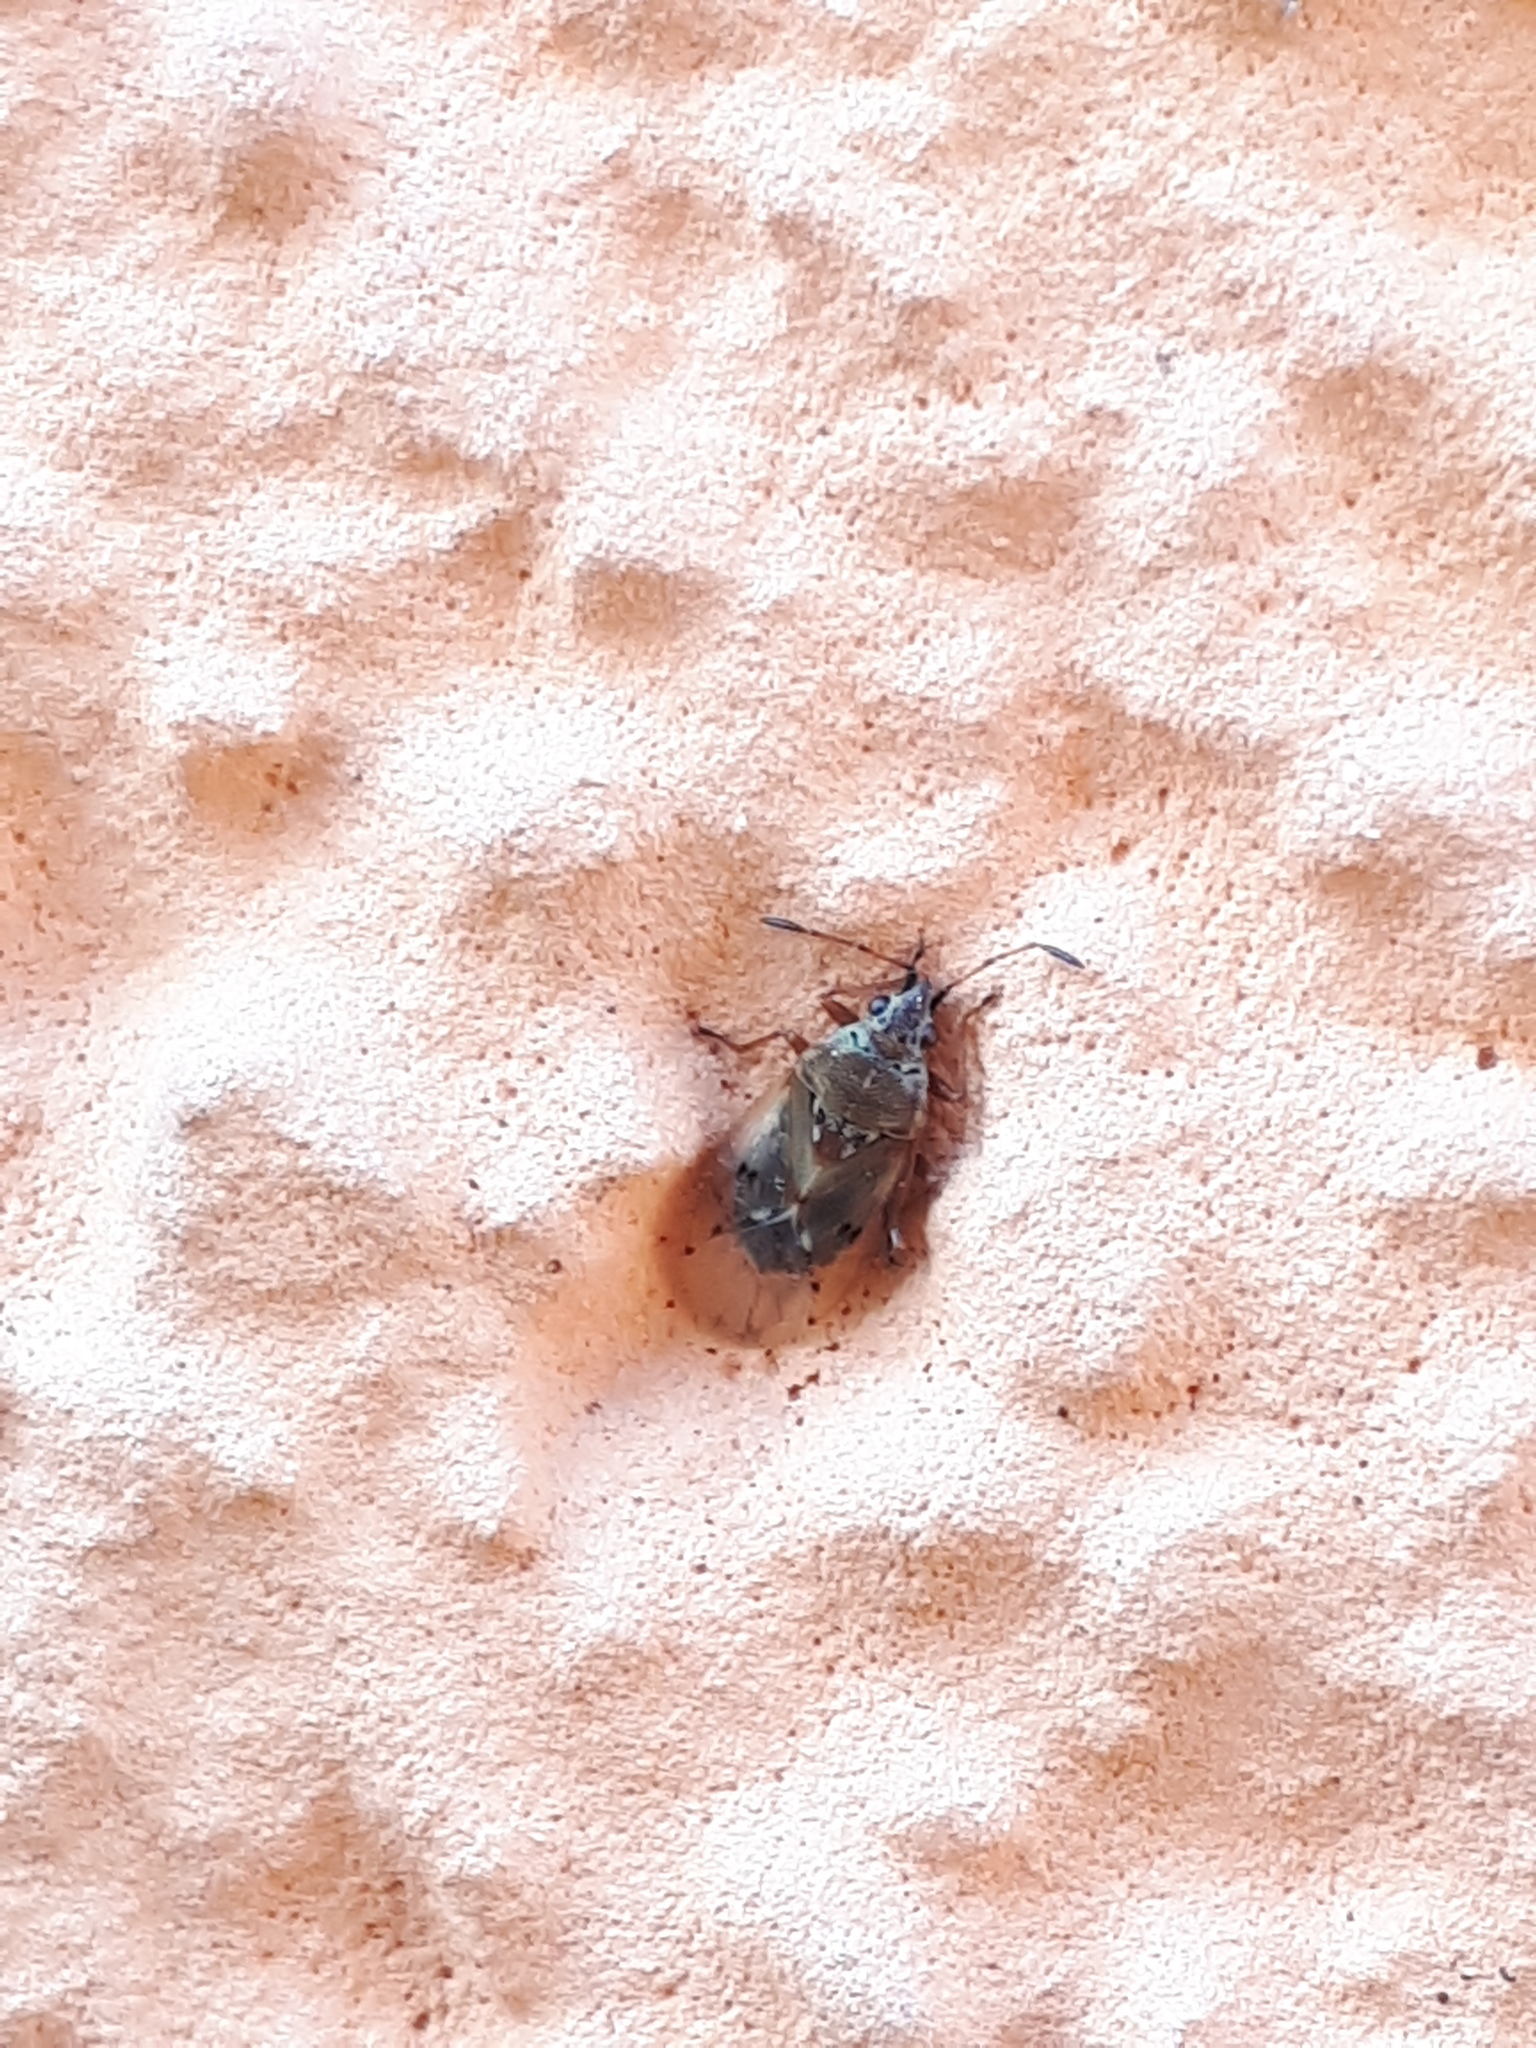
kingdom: Animalia
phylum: Arthropoda
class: Insecta
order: Hemiptera
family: Lygaeidae
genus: Kleidocerys
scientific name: Kleidocerys resedae
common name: Birch catkin bug
